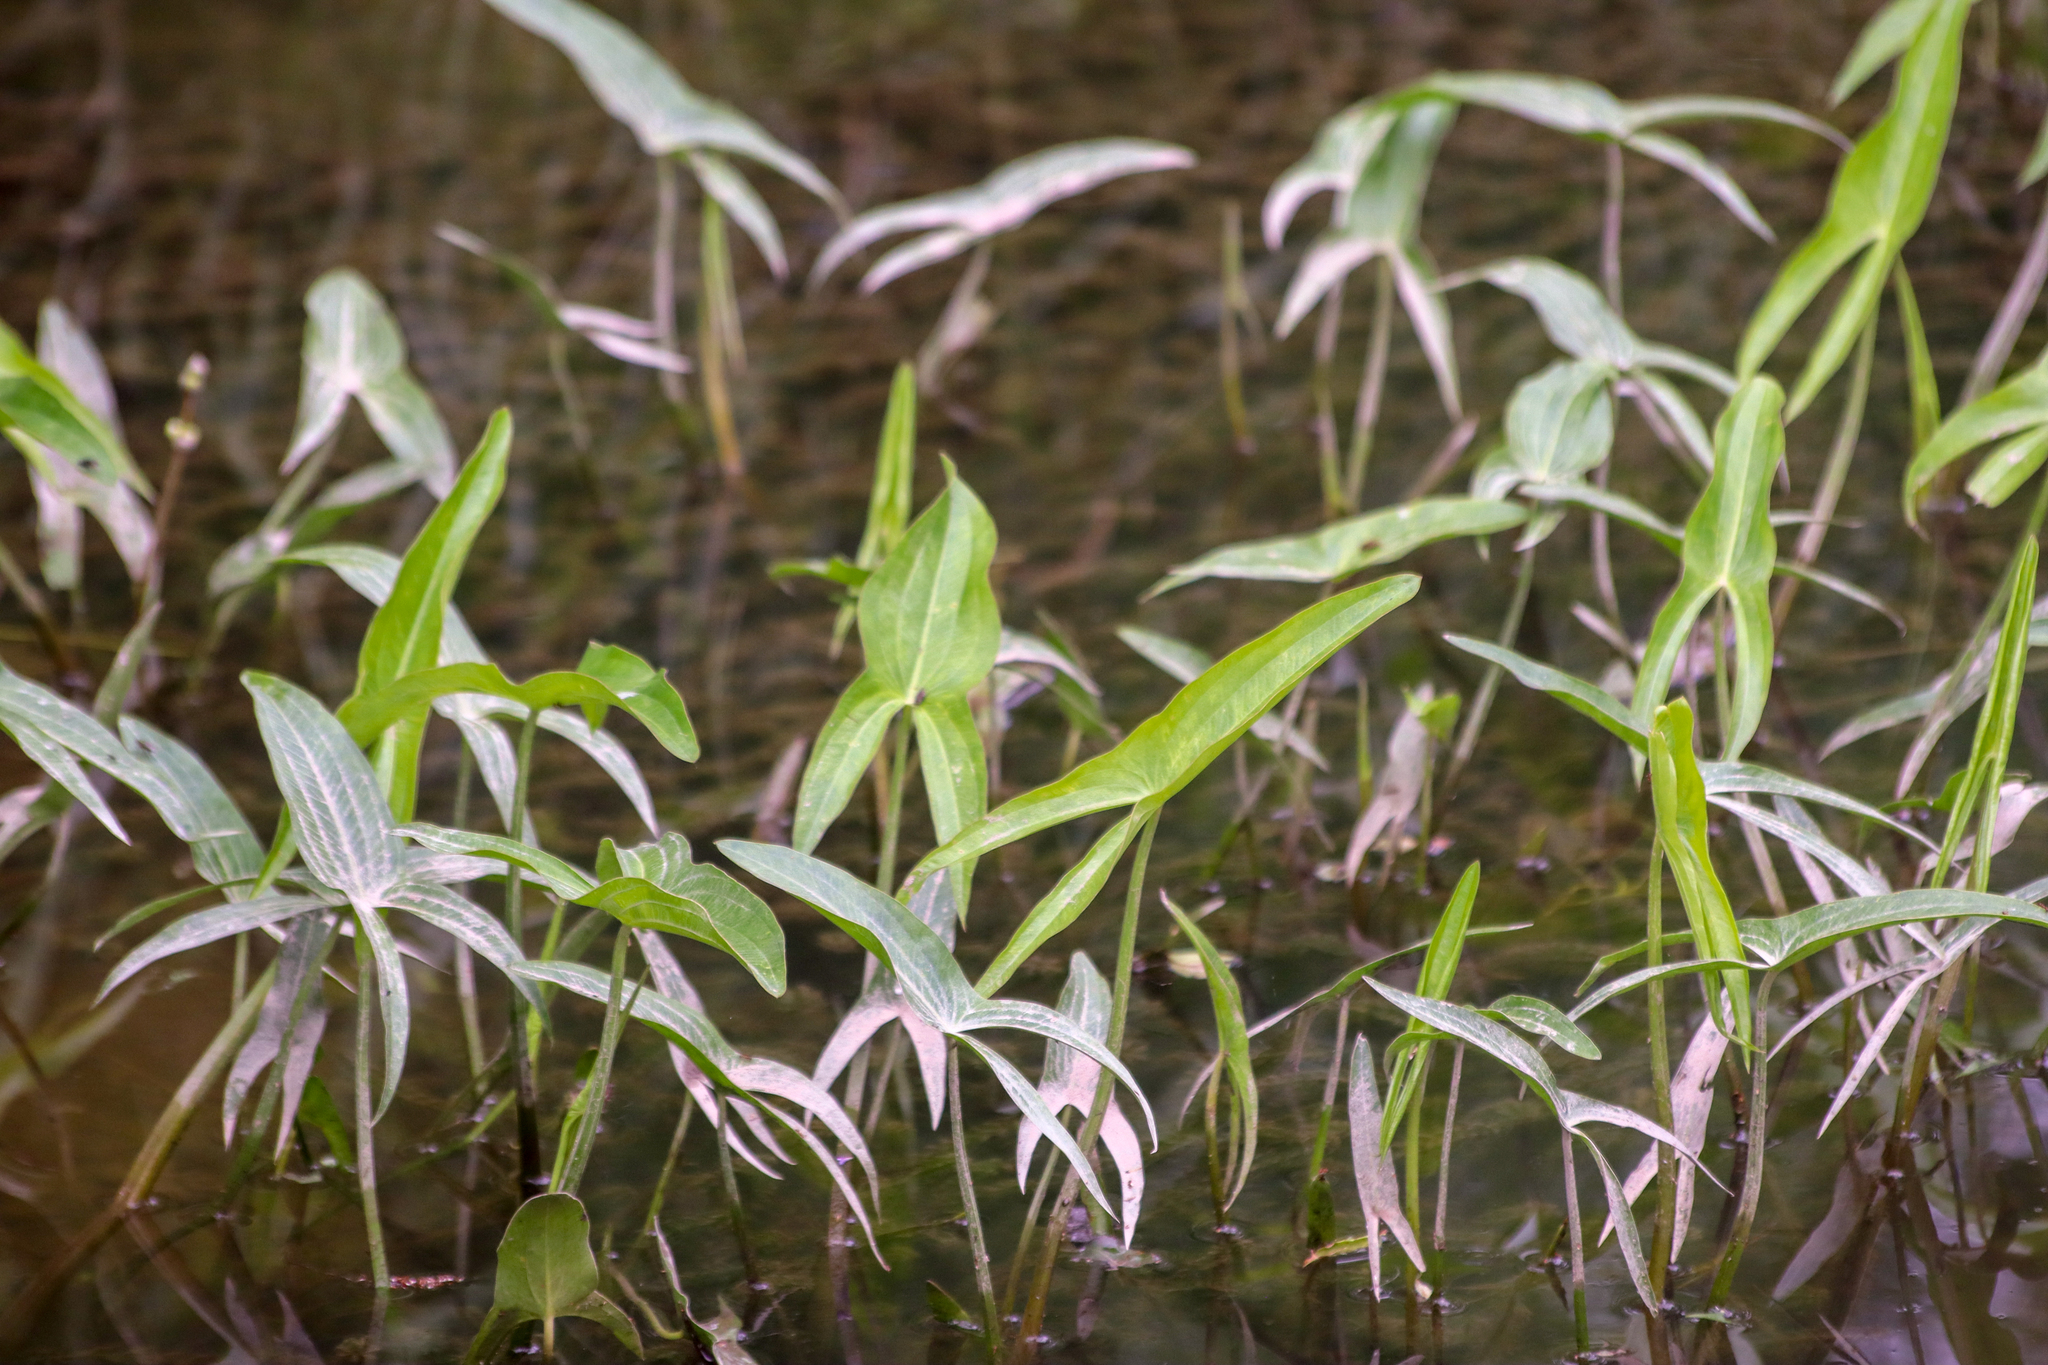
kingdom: Plantae
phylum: Tracheophyta
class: Liliopsida
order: Alismatales
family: Alismataceae
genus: Sagittaria
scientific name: Sagittaria latifolia
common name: Duck-potato
